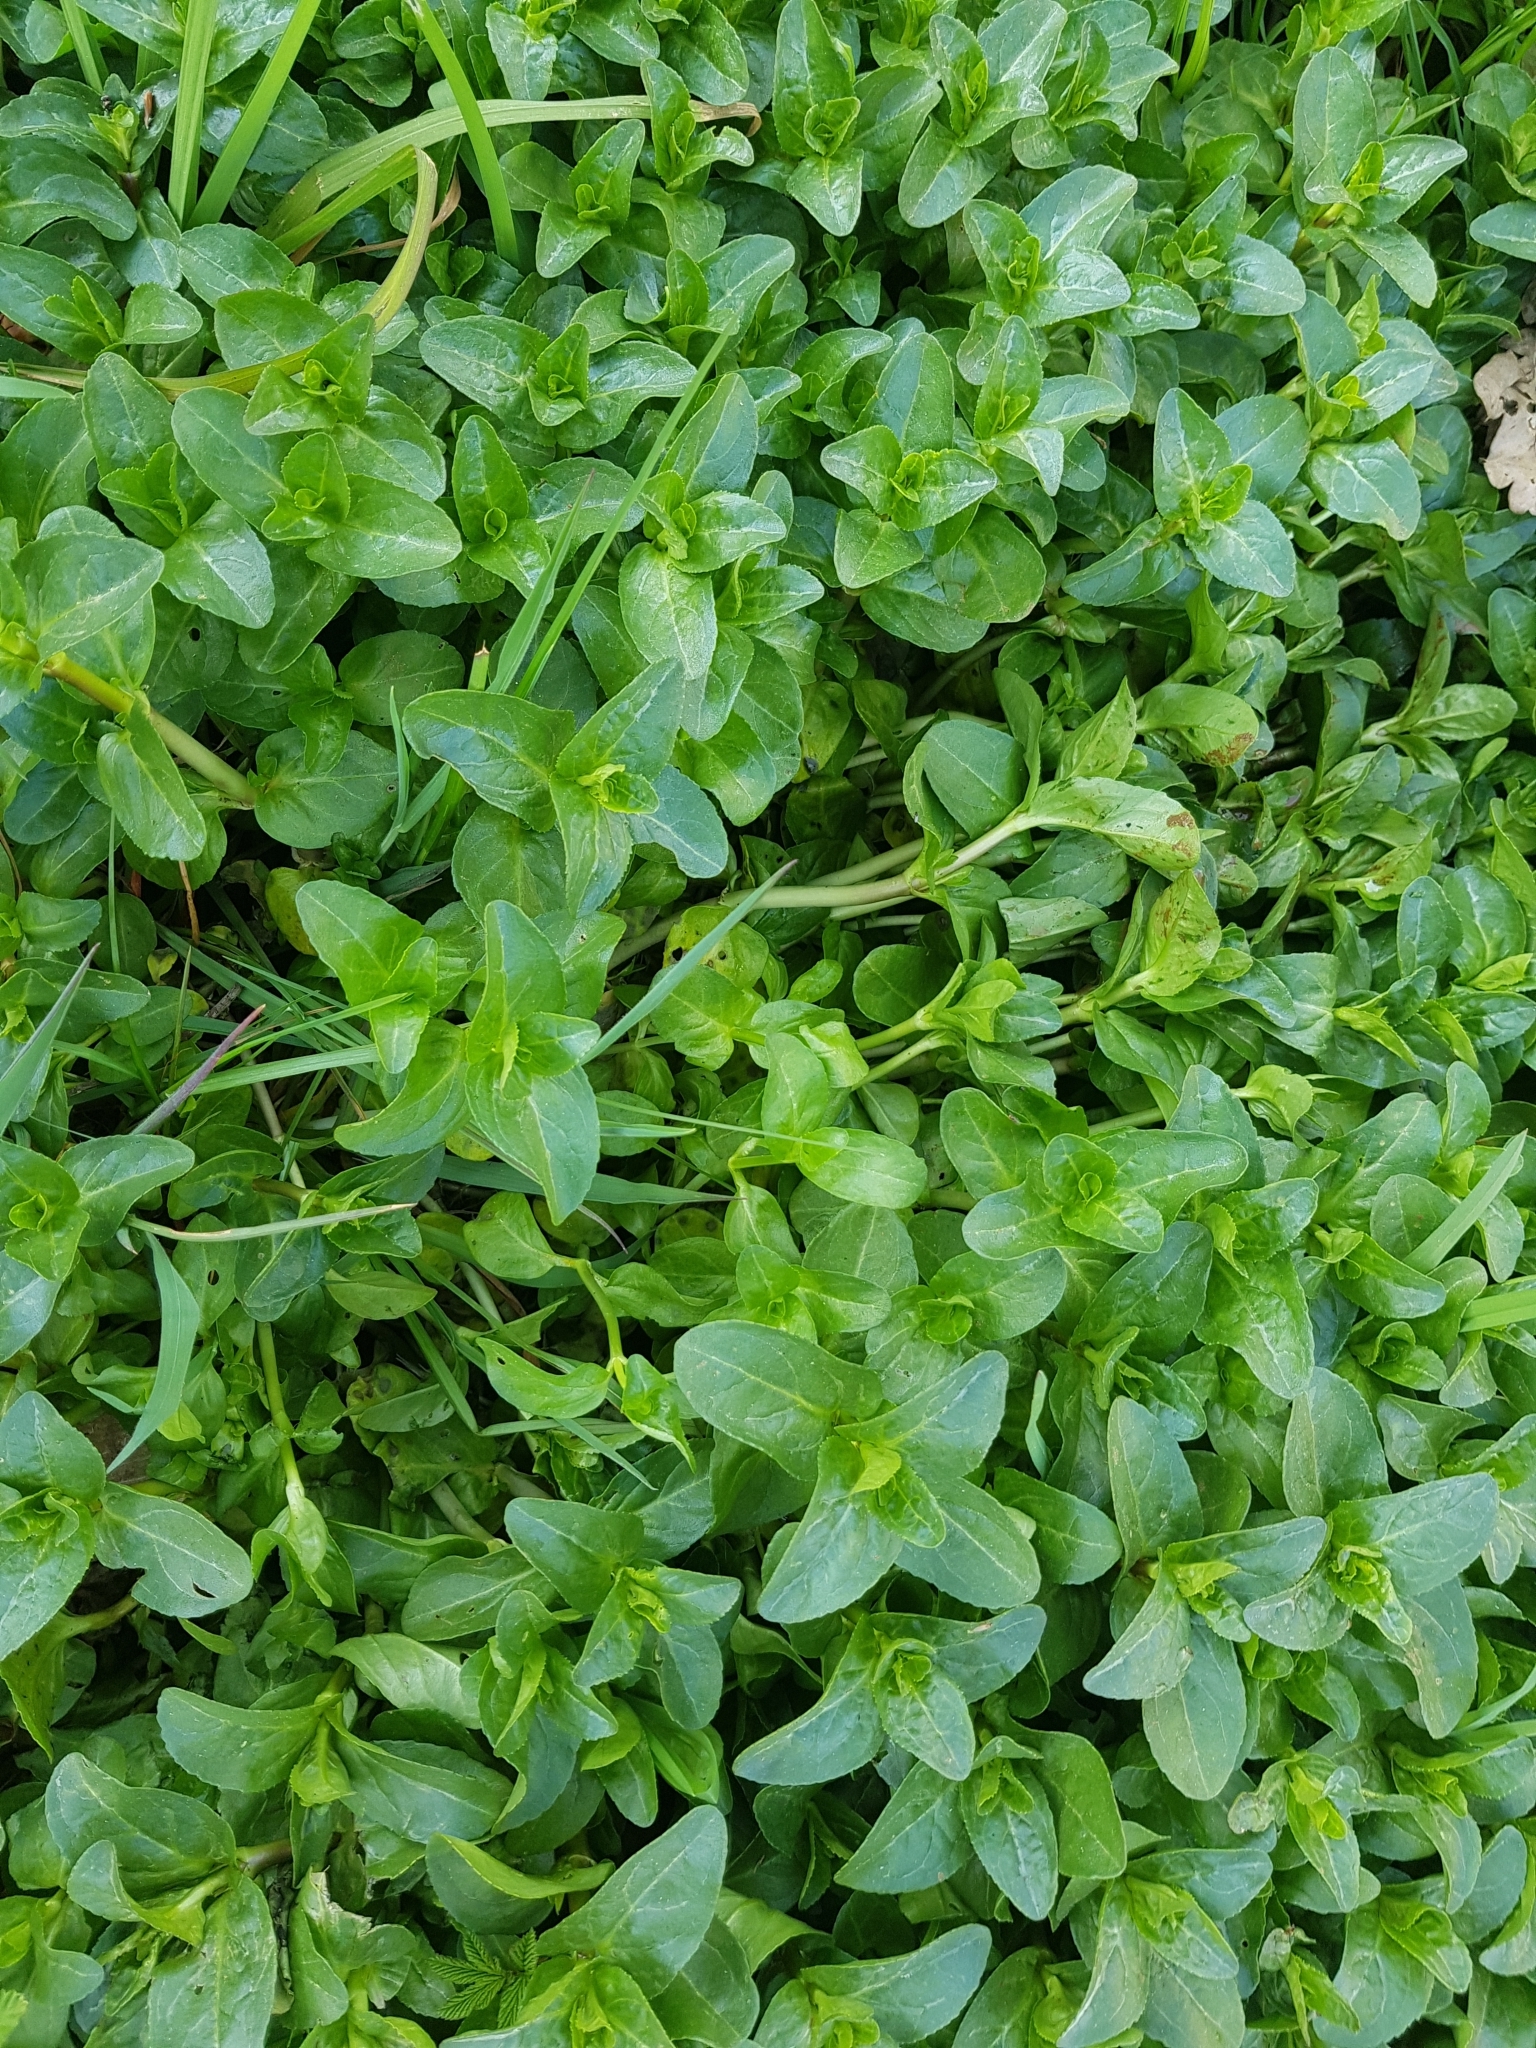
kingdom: Plantae
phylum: Tracheophyta
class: Magnoliopsida
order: Lamiales
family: Plantaginaceae
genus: Veronica
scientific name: Veronica beccabunga
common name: Brooklime
